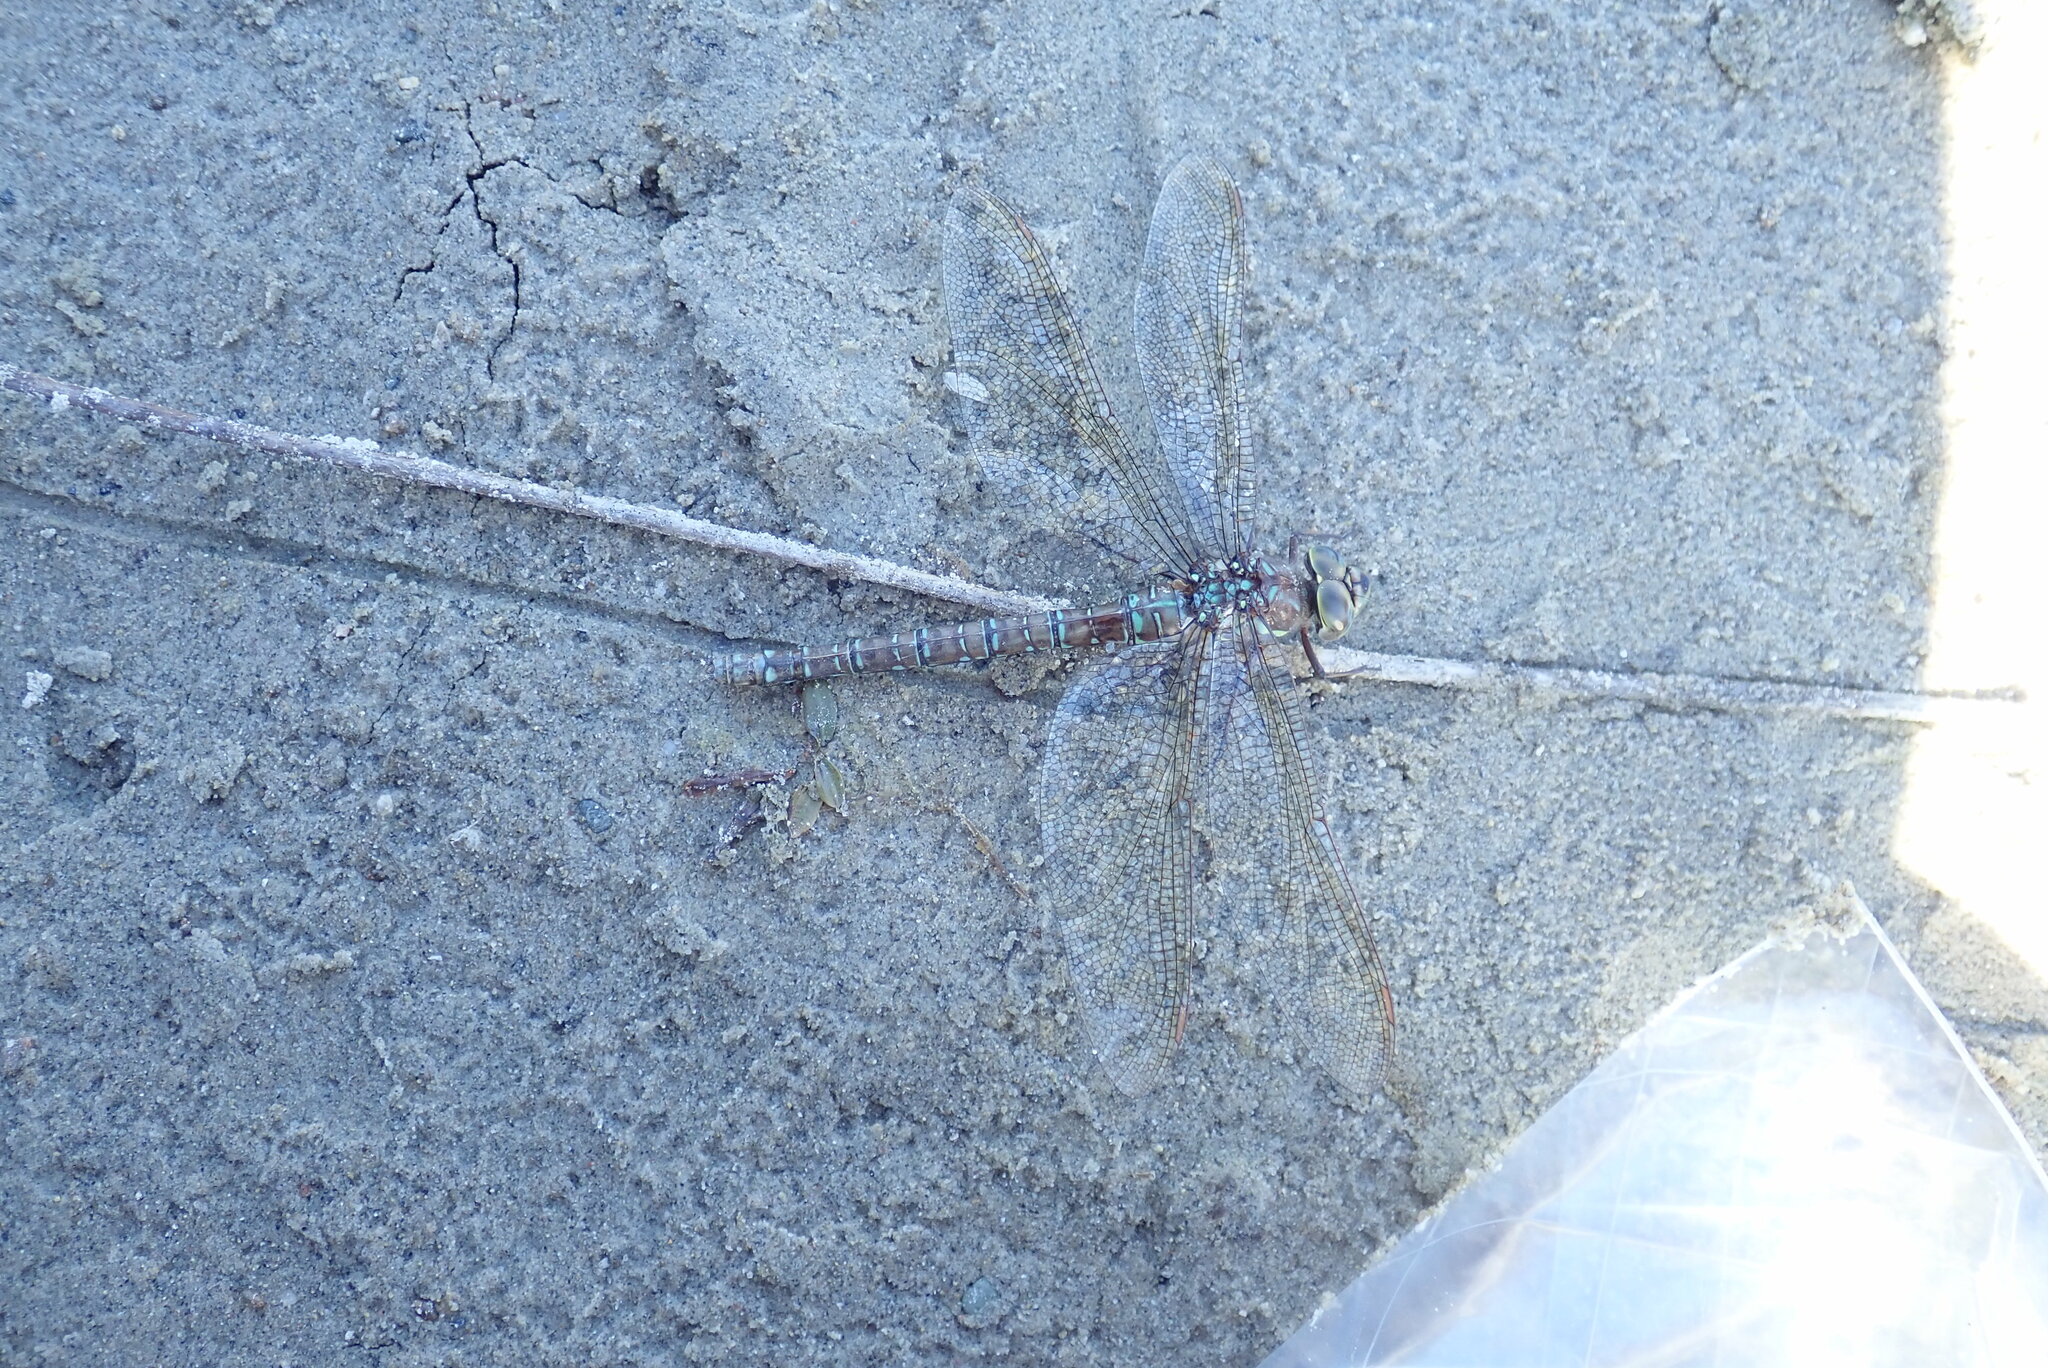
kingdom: Animalia
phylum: Arthropoda
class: Insecta
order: Odonata
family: Aeshnidae
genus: Aeshna
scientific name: Aeshna umbrosa
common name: Shadow darner
